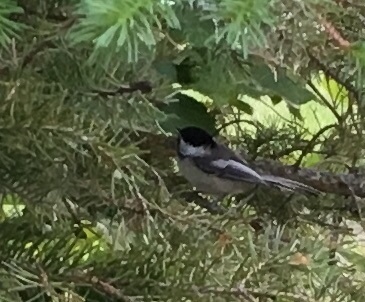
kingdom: Animalia
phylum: Chordata
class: Aves
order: Passeriformes
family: Paridae
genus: Poecile
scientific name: Poecile atricapillus
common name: Black-capped chickadee
